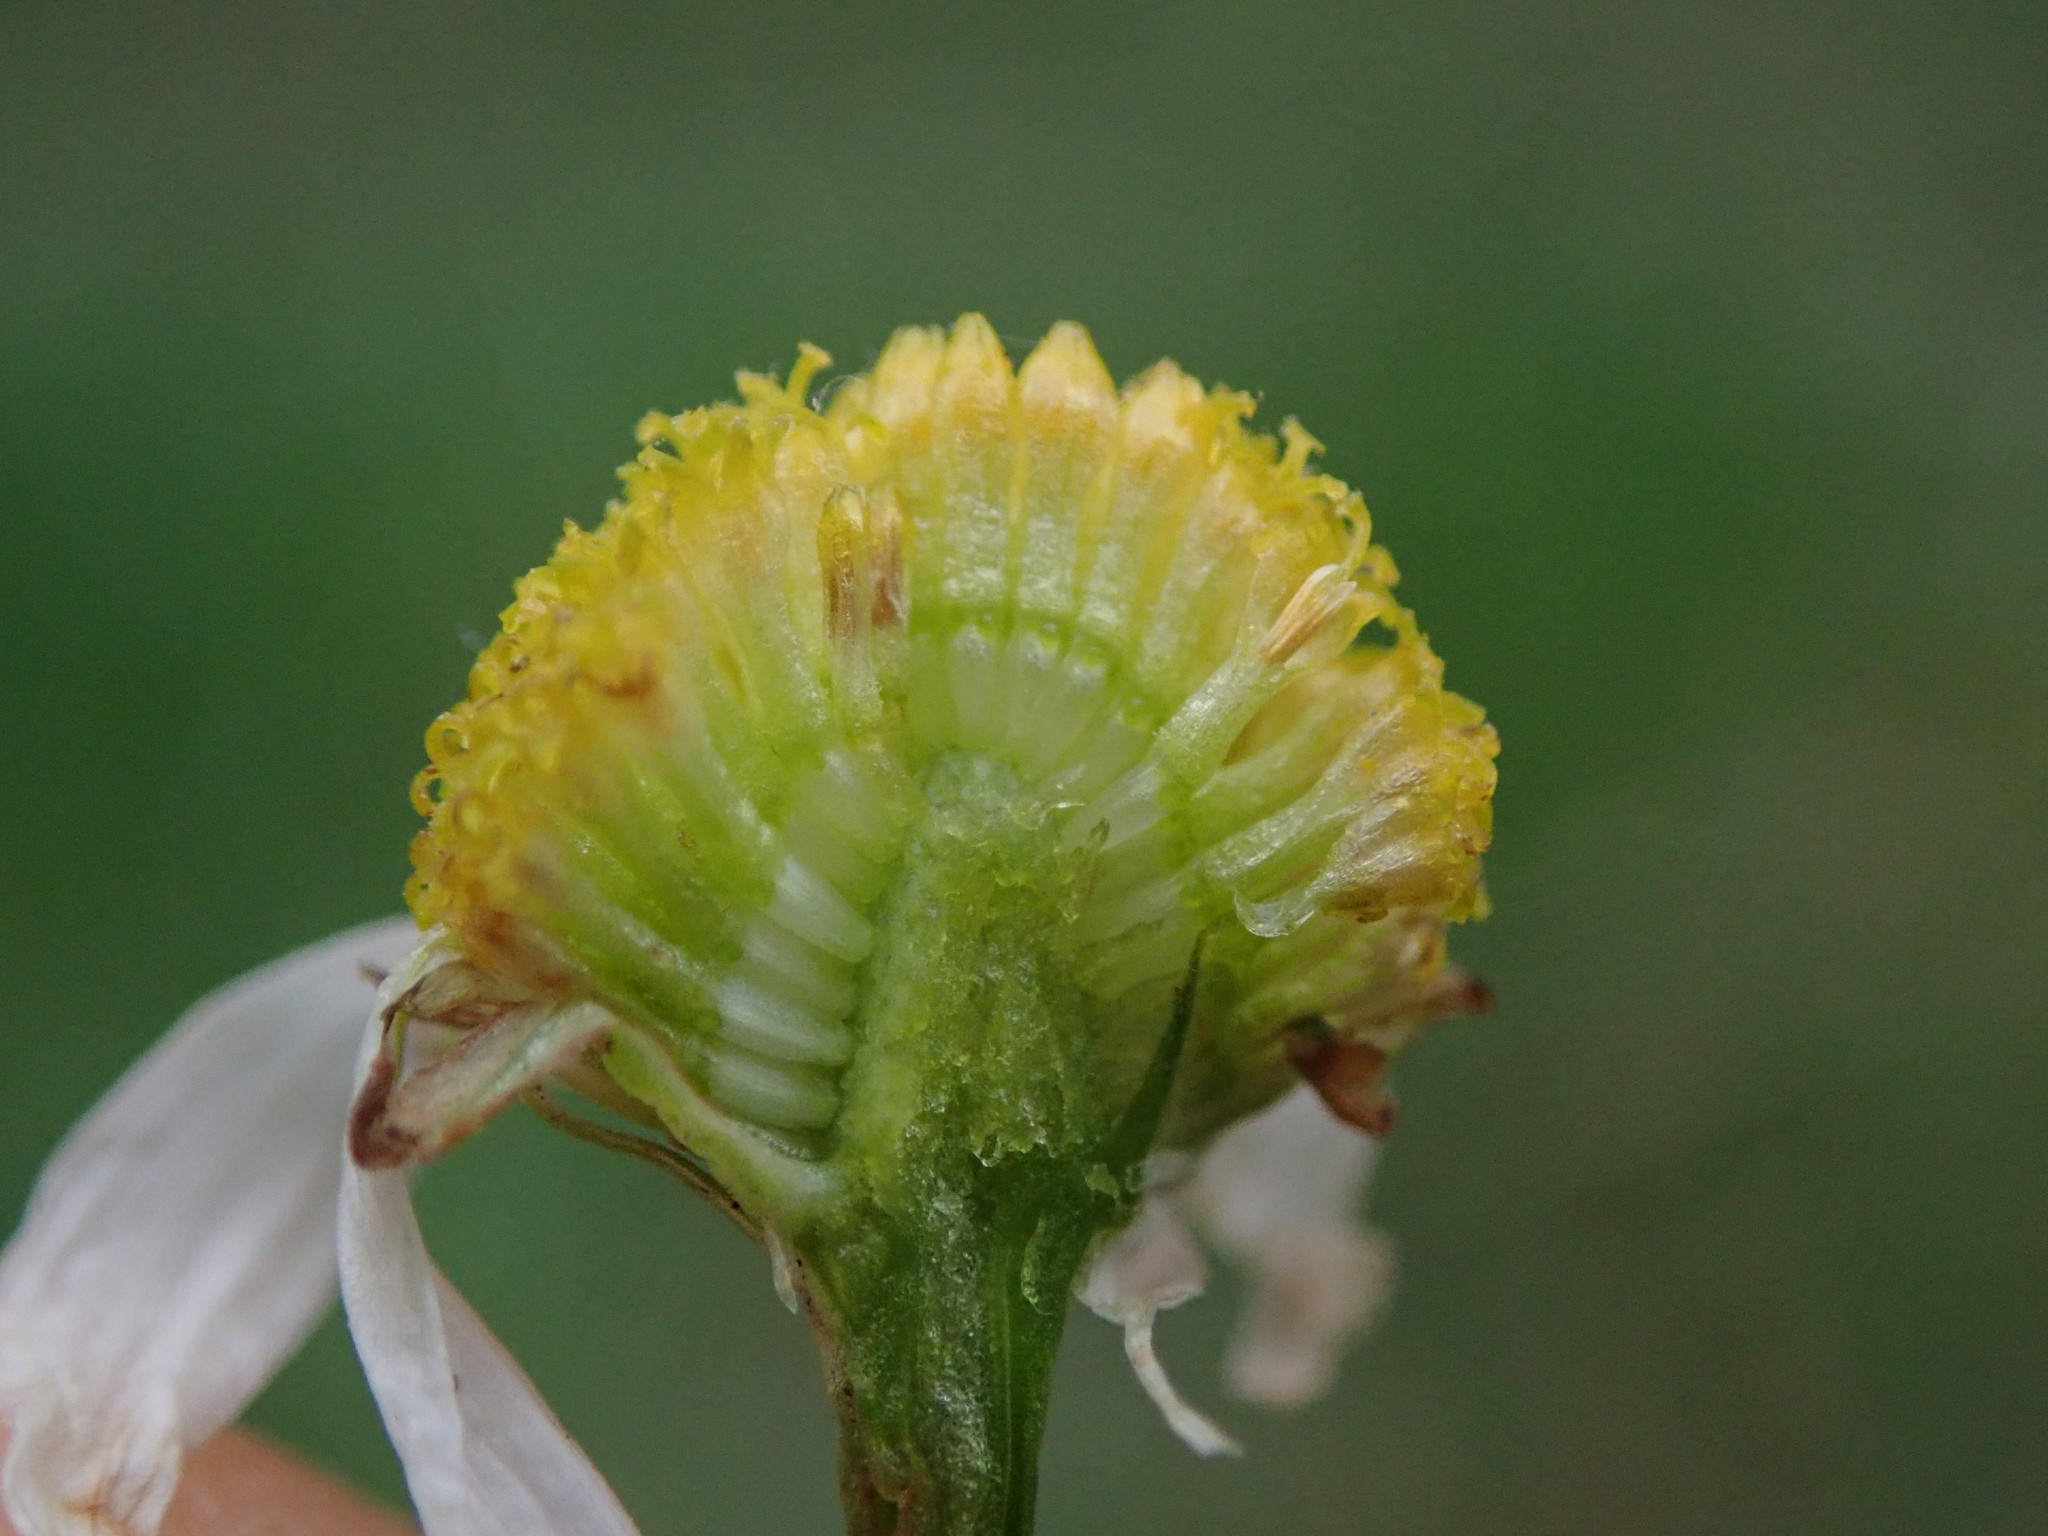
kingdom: Plantae
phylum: Tracheophyta
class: Magnoliopsida
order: Asterales
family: Asteraceae
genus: Tripleurospermum
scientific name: Tripleurospermum inodorum
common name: Scentless mayweed
